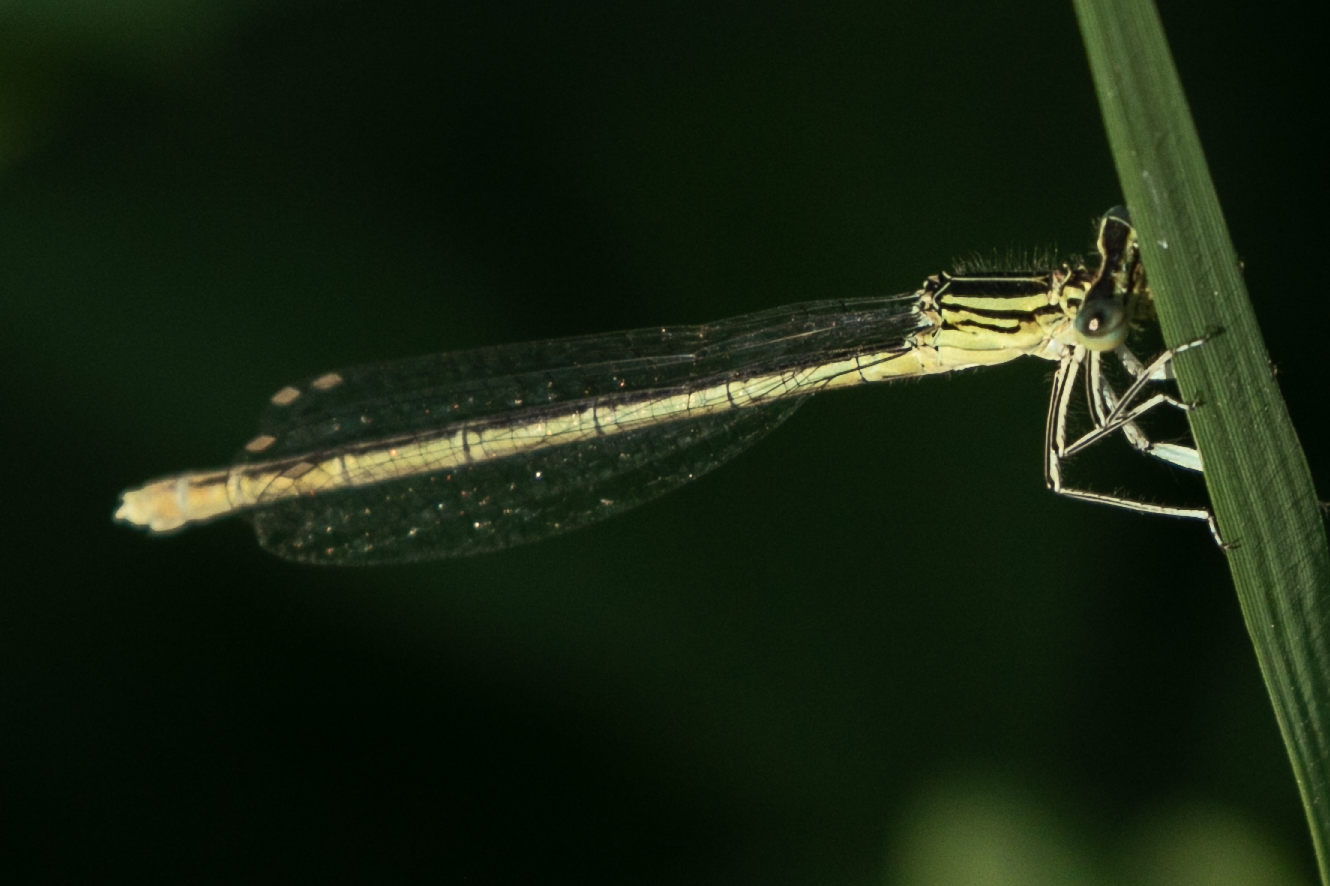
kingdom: Animalia
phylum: Arthropoda
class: Insecta
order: Odonata
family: Platycnemididae
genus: Platycnemis
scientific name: Platycnemis pennipes
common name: White-legged damselfly
